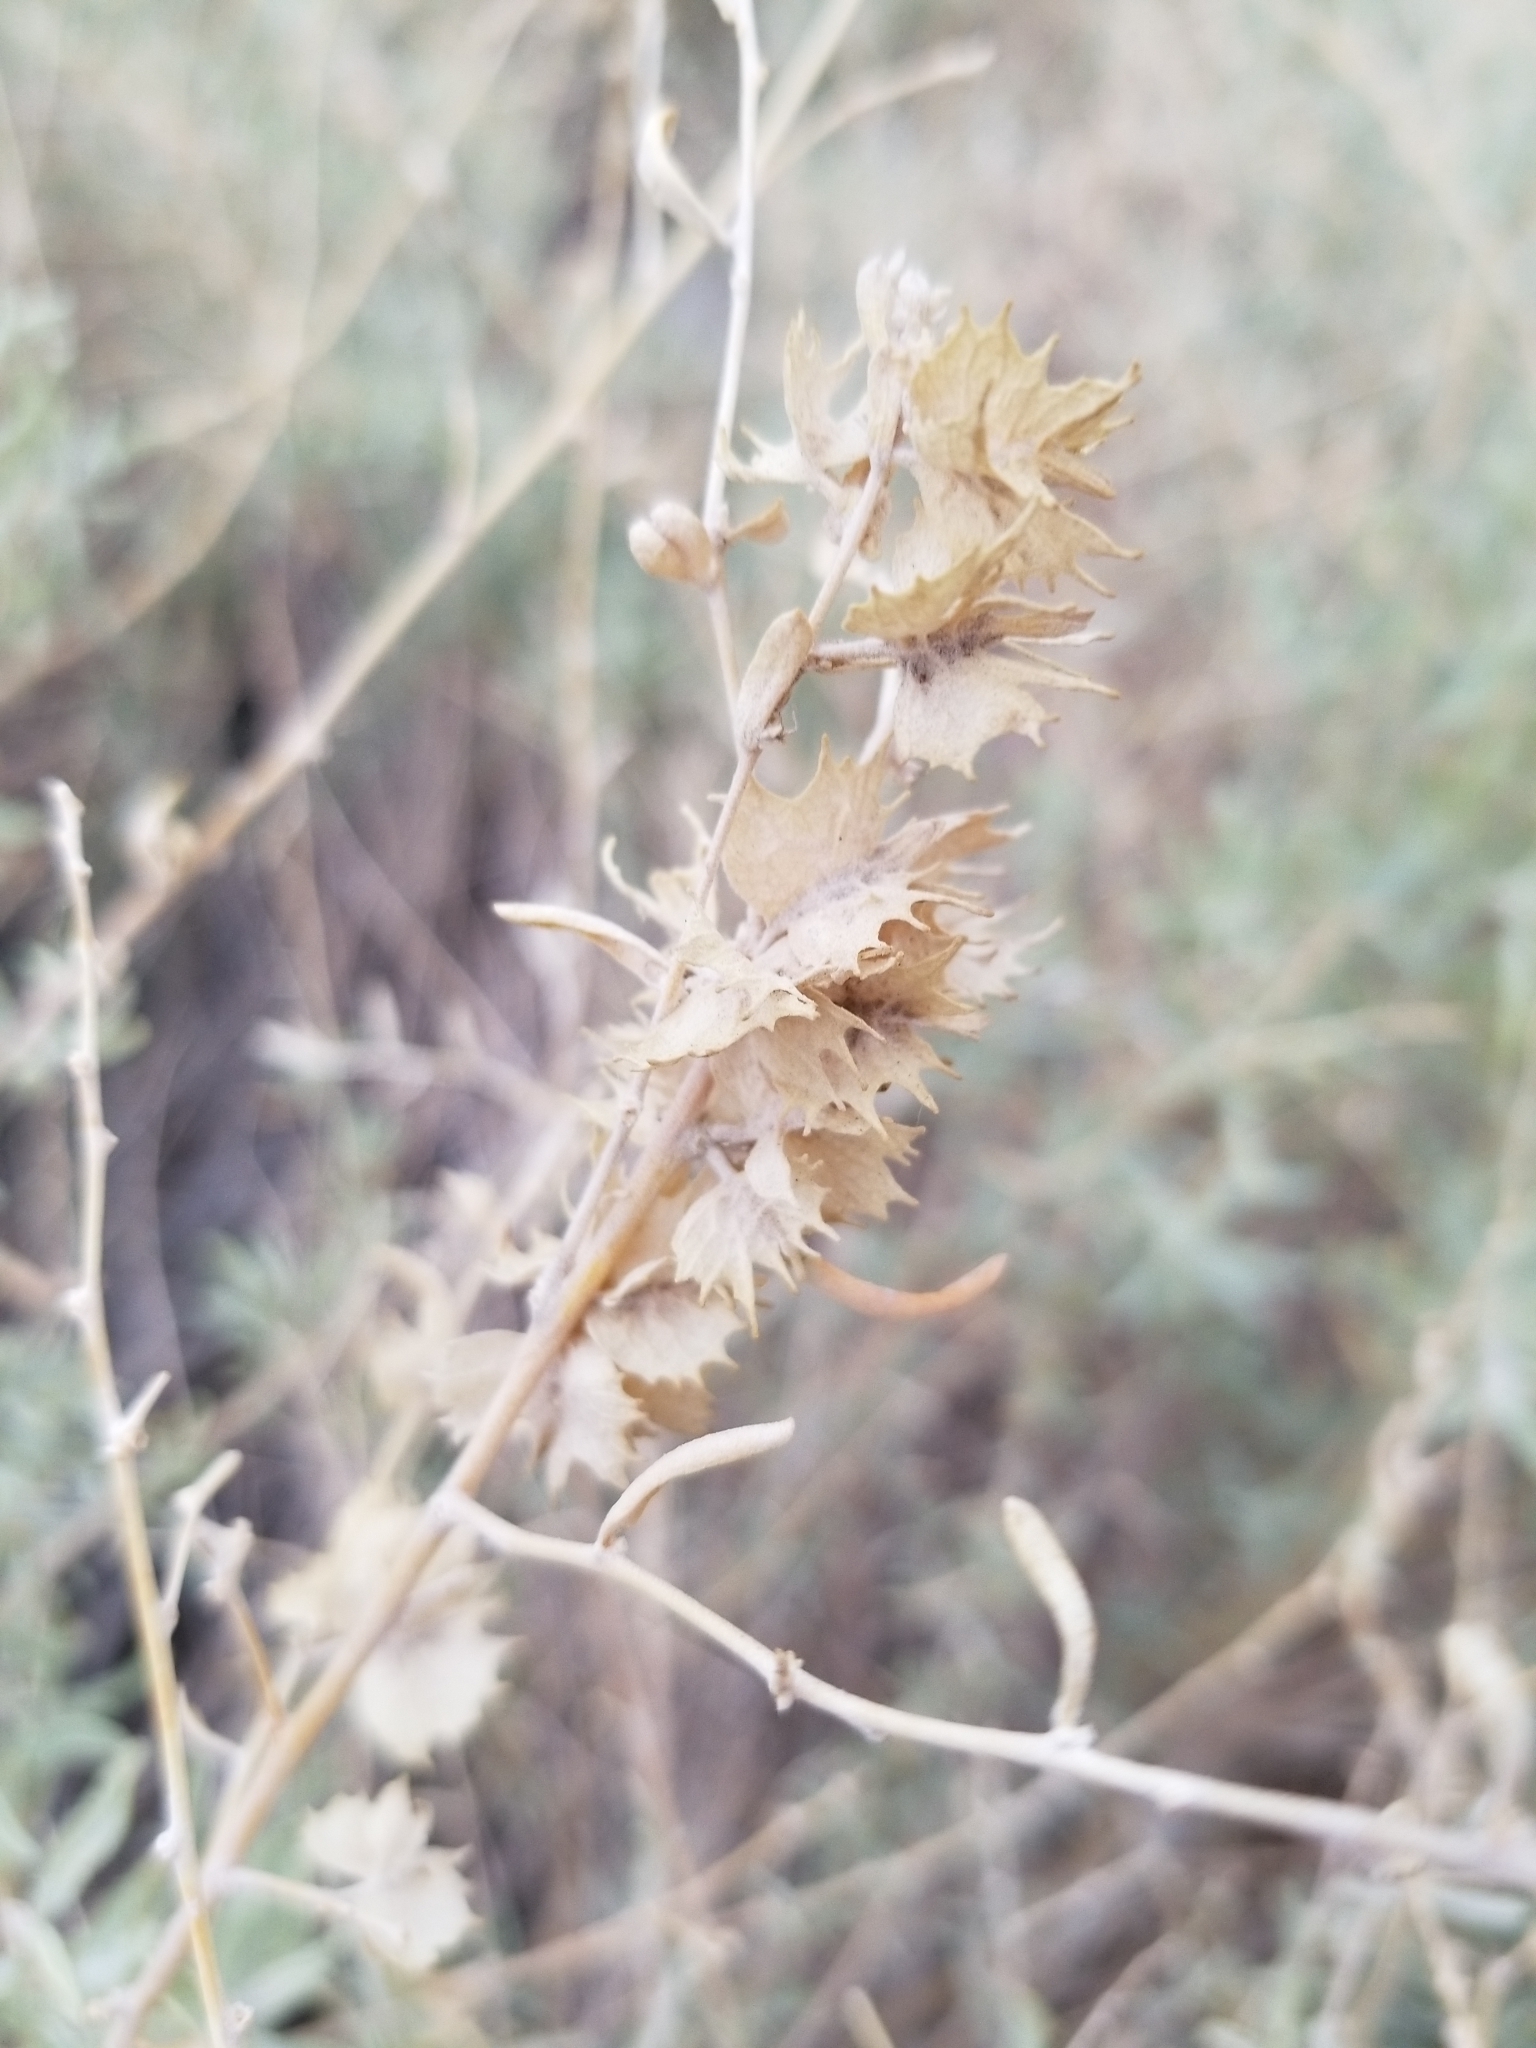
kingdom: Plantae
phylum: Tracheophyta
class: Magnoliopsida
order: Caryophyllales
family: Amaranthaceae
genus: Atriplex
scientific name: Atriplex canescens
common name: Four-wing saltbush
